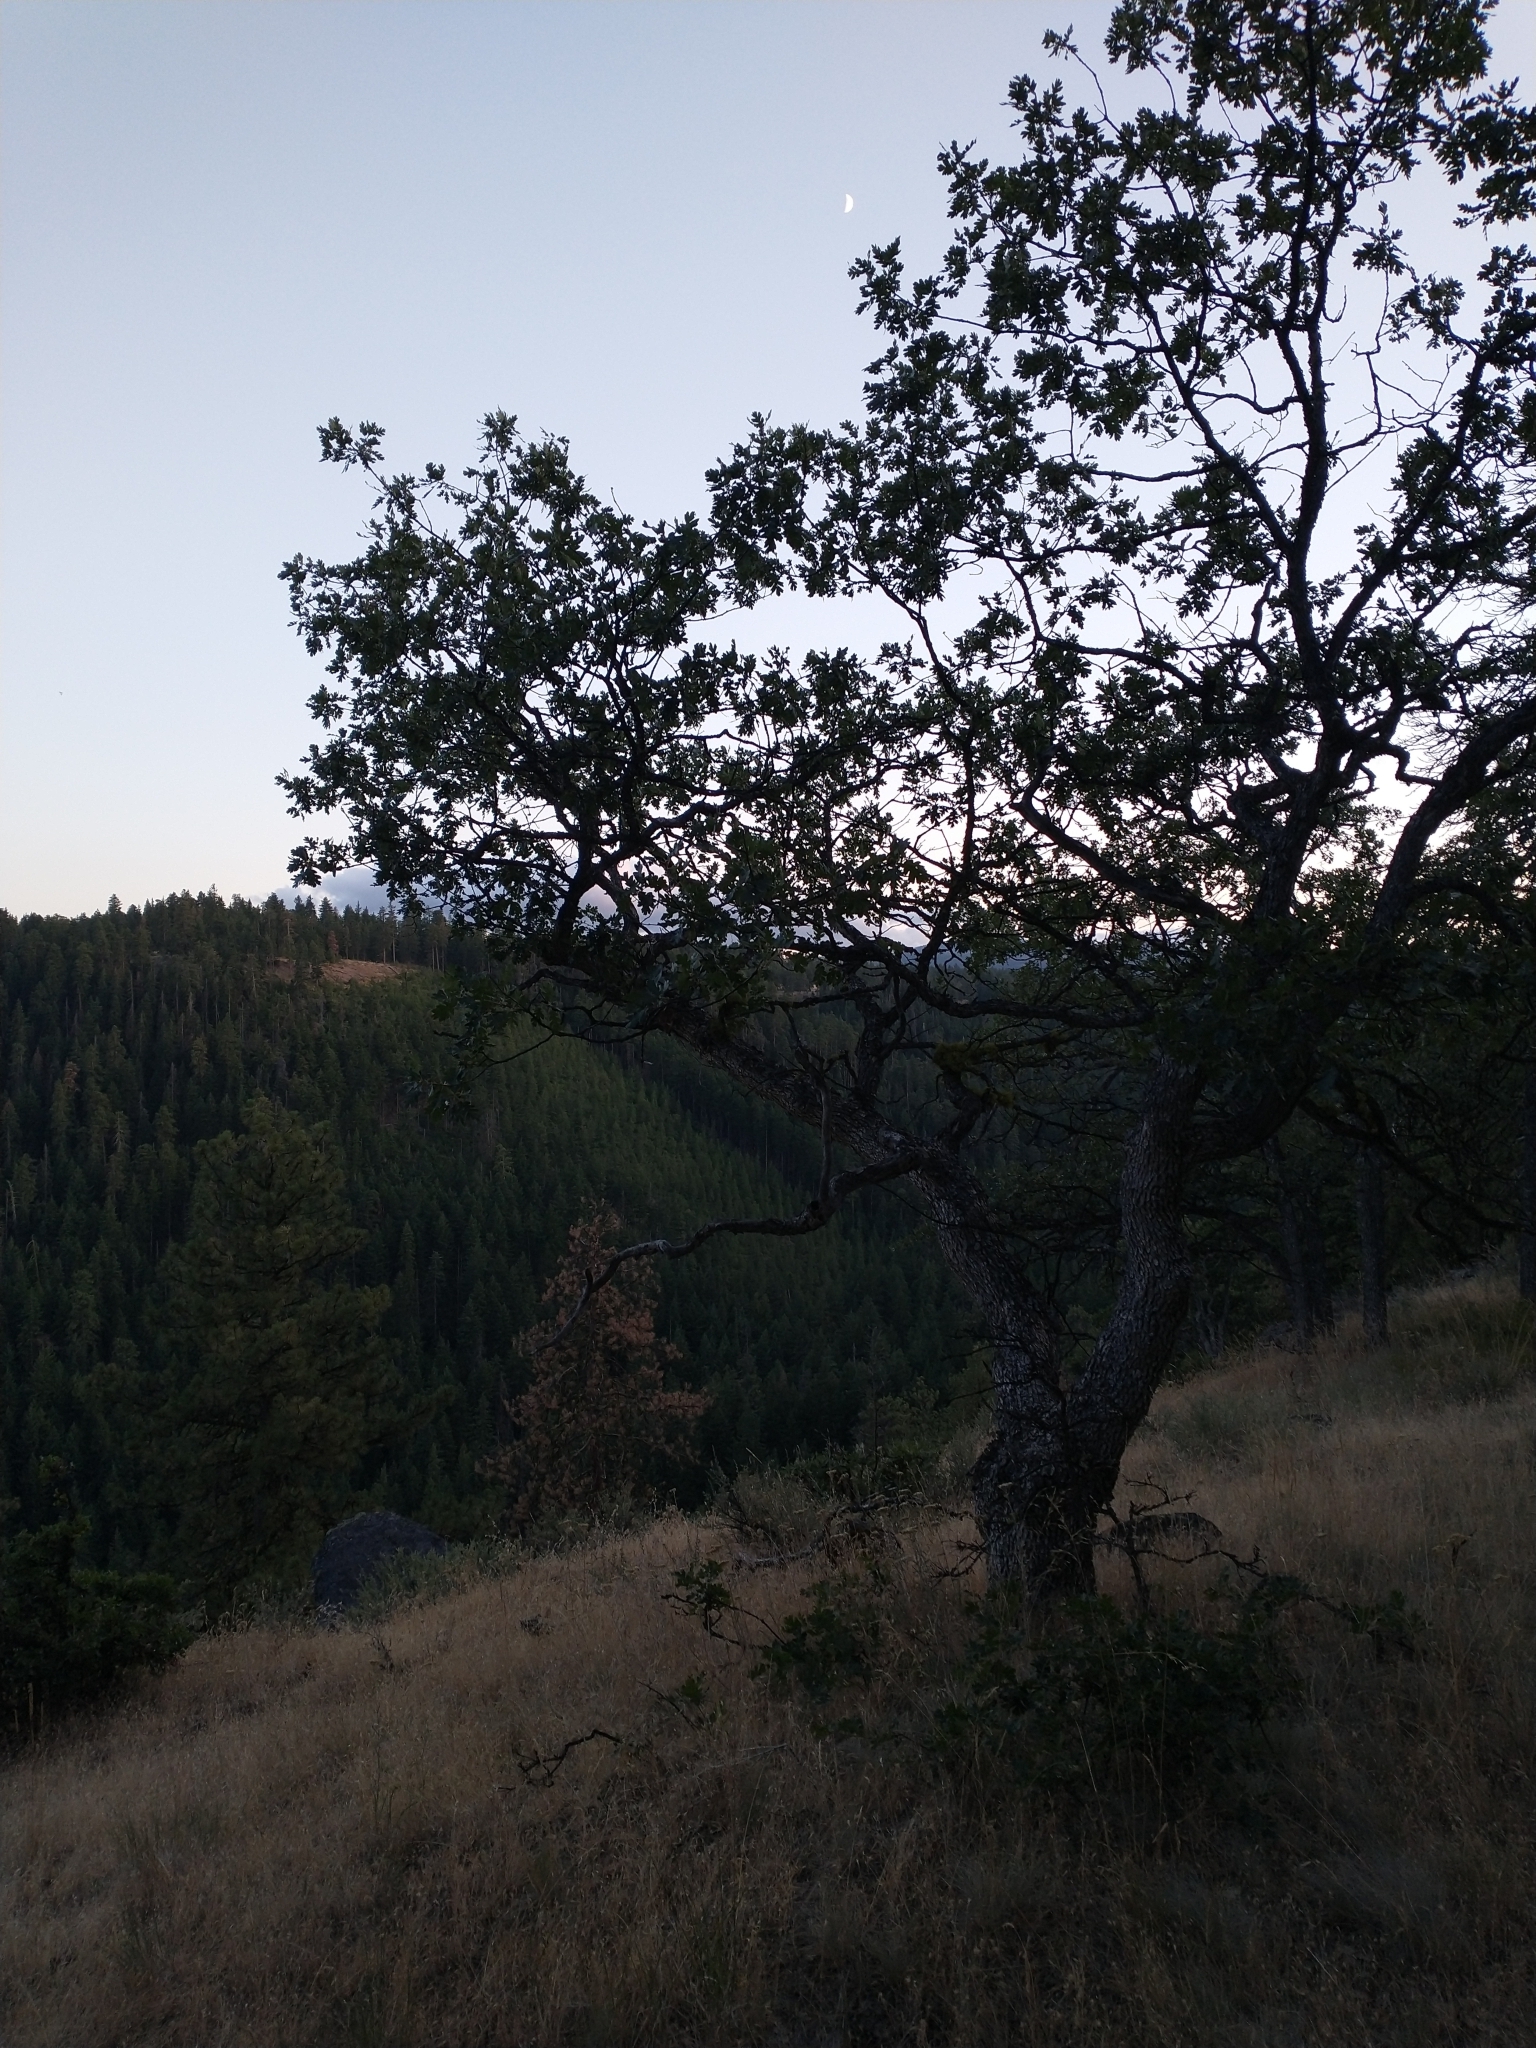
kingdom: Plantae
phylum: Tracheophyta
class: Magnoliopsida
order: Fagales
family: Fagaceae
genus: Quercus
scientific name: Quercus garryana
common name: Garry oak
